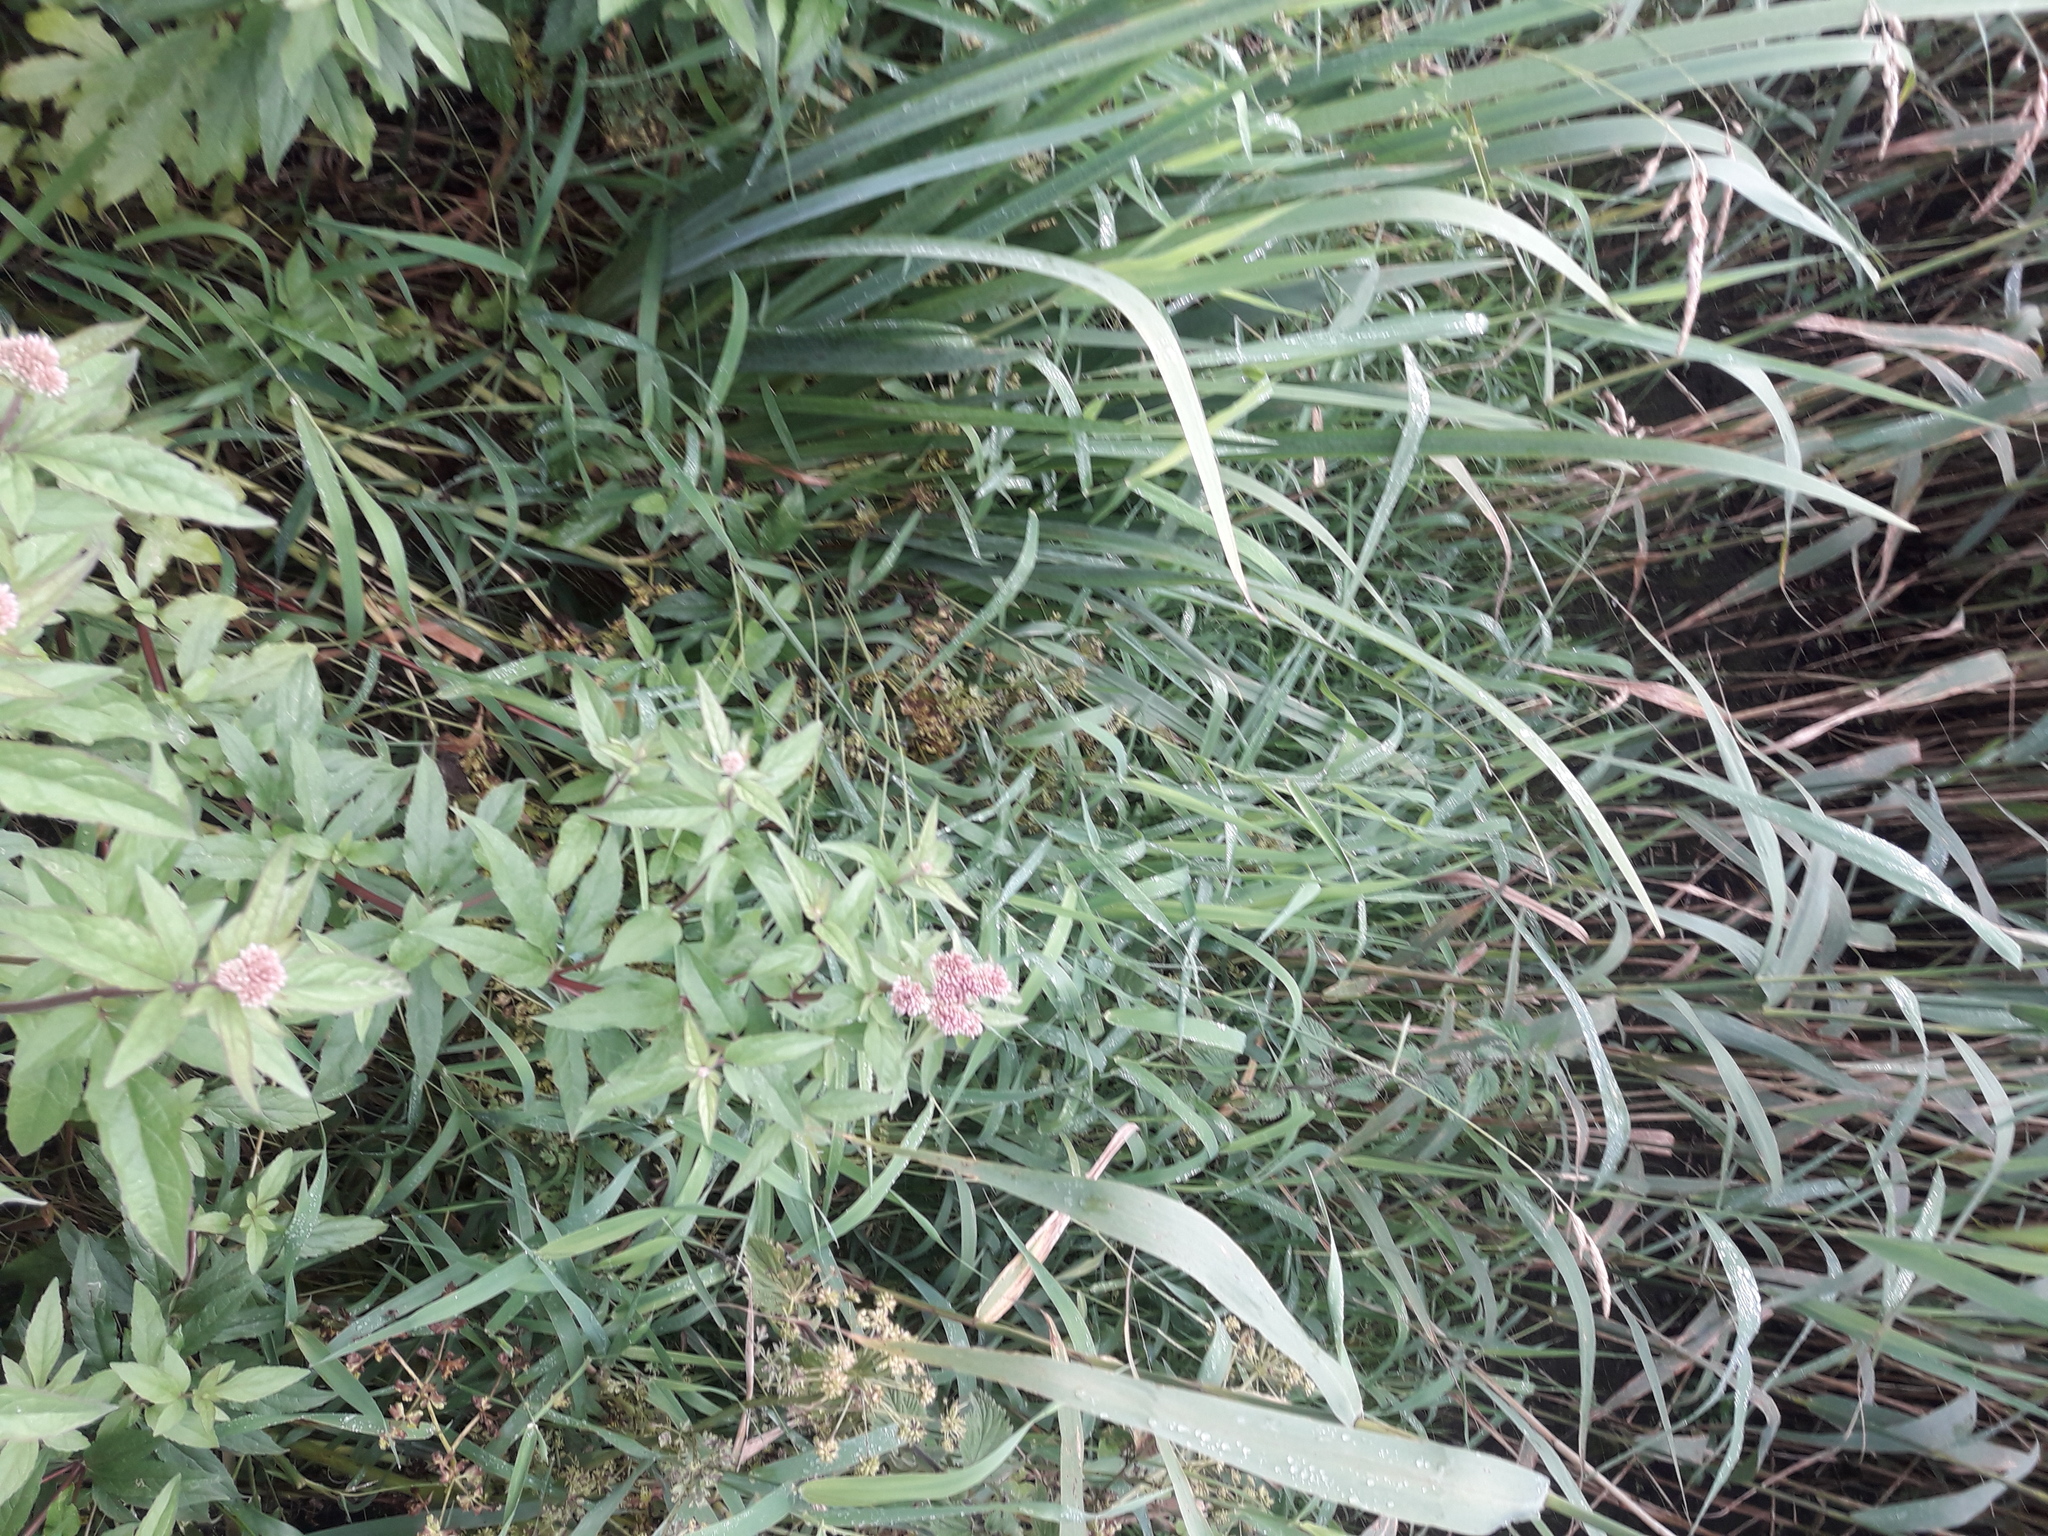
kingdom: Plantae
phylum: Tracheophyta
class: Liliopsida
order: Poales
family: Poaceae
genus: Phragmites
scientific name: Phragmites australis
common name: Common reed
